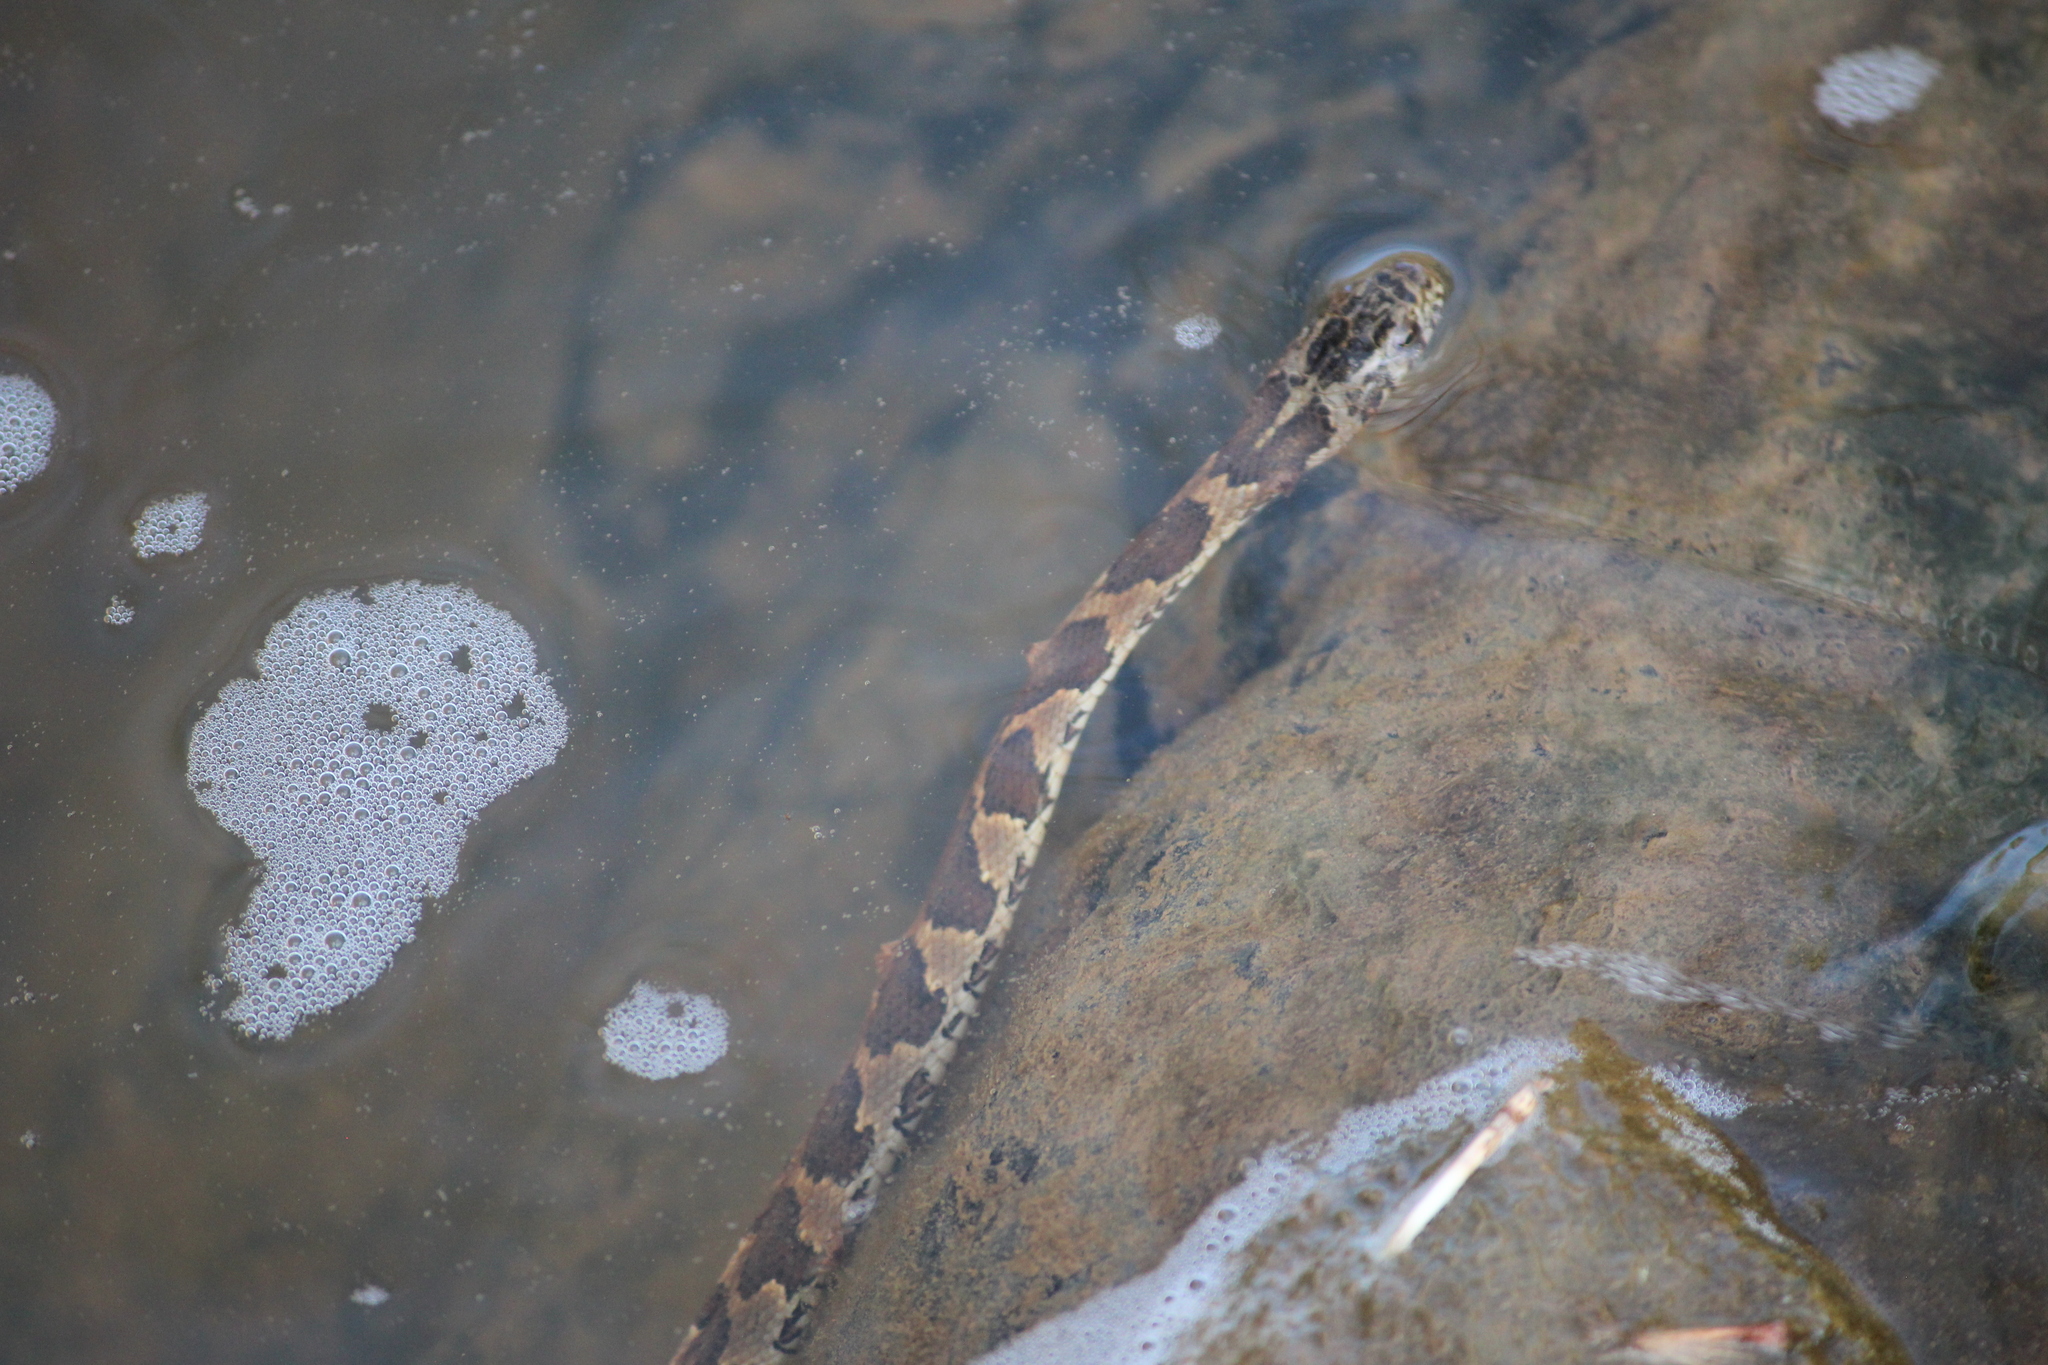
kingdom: Animalia
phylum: Chordata
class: Squamata
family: Colubridae
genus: Nerodia
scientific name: Nerodia sipedon
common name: Northern water snake
